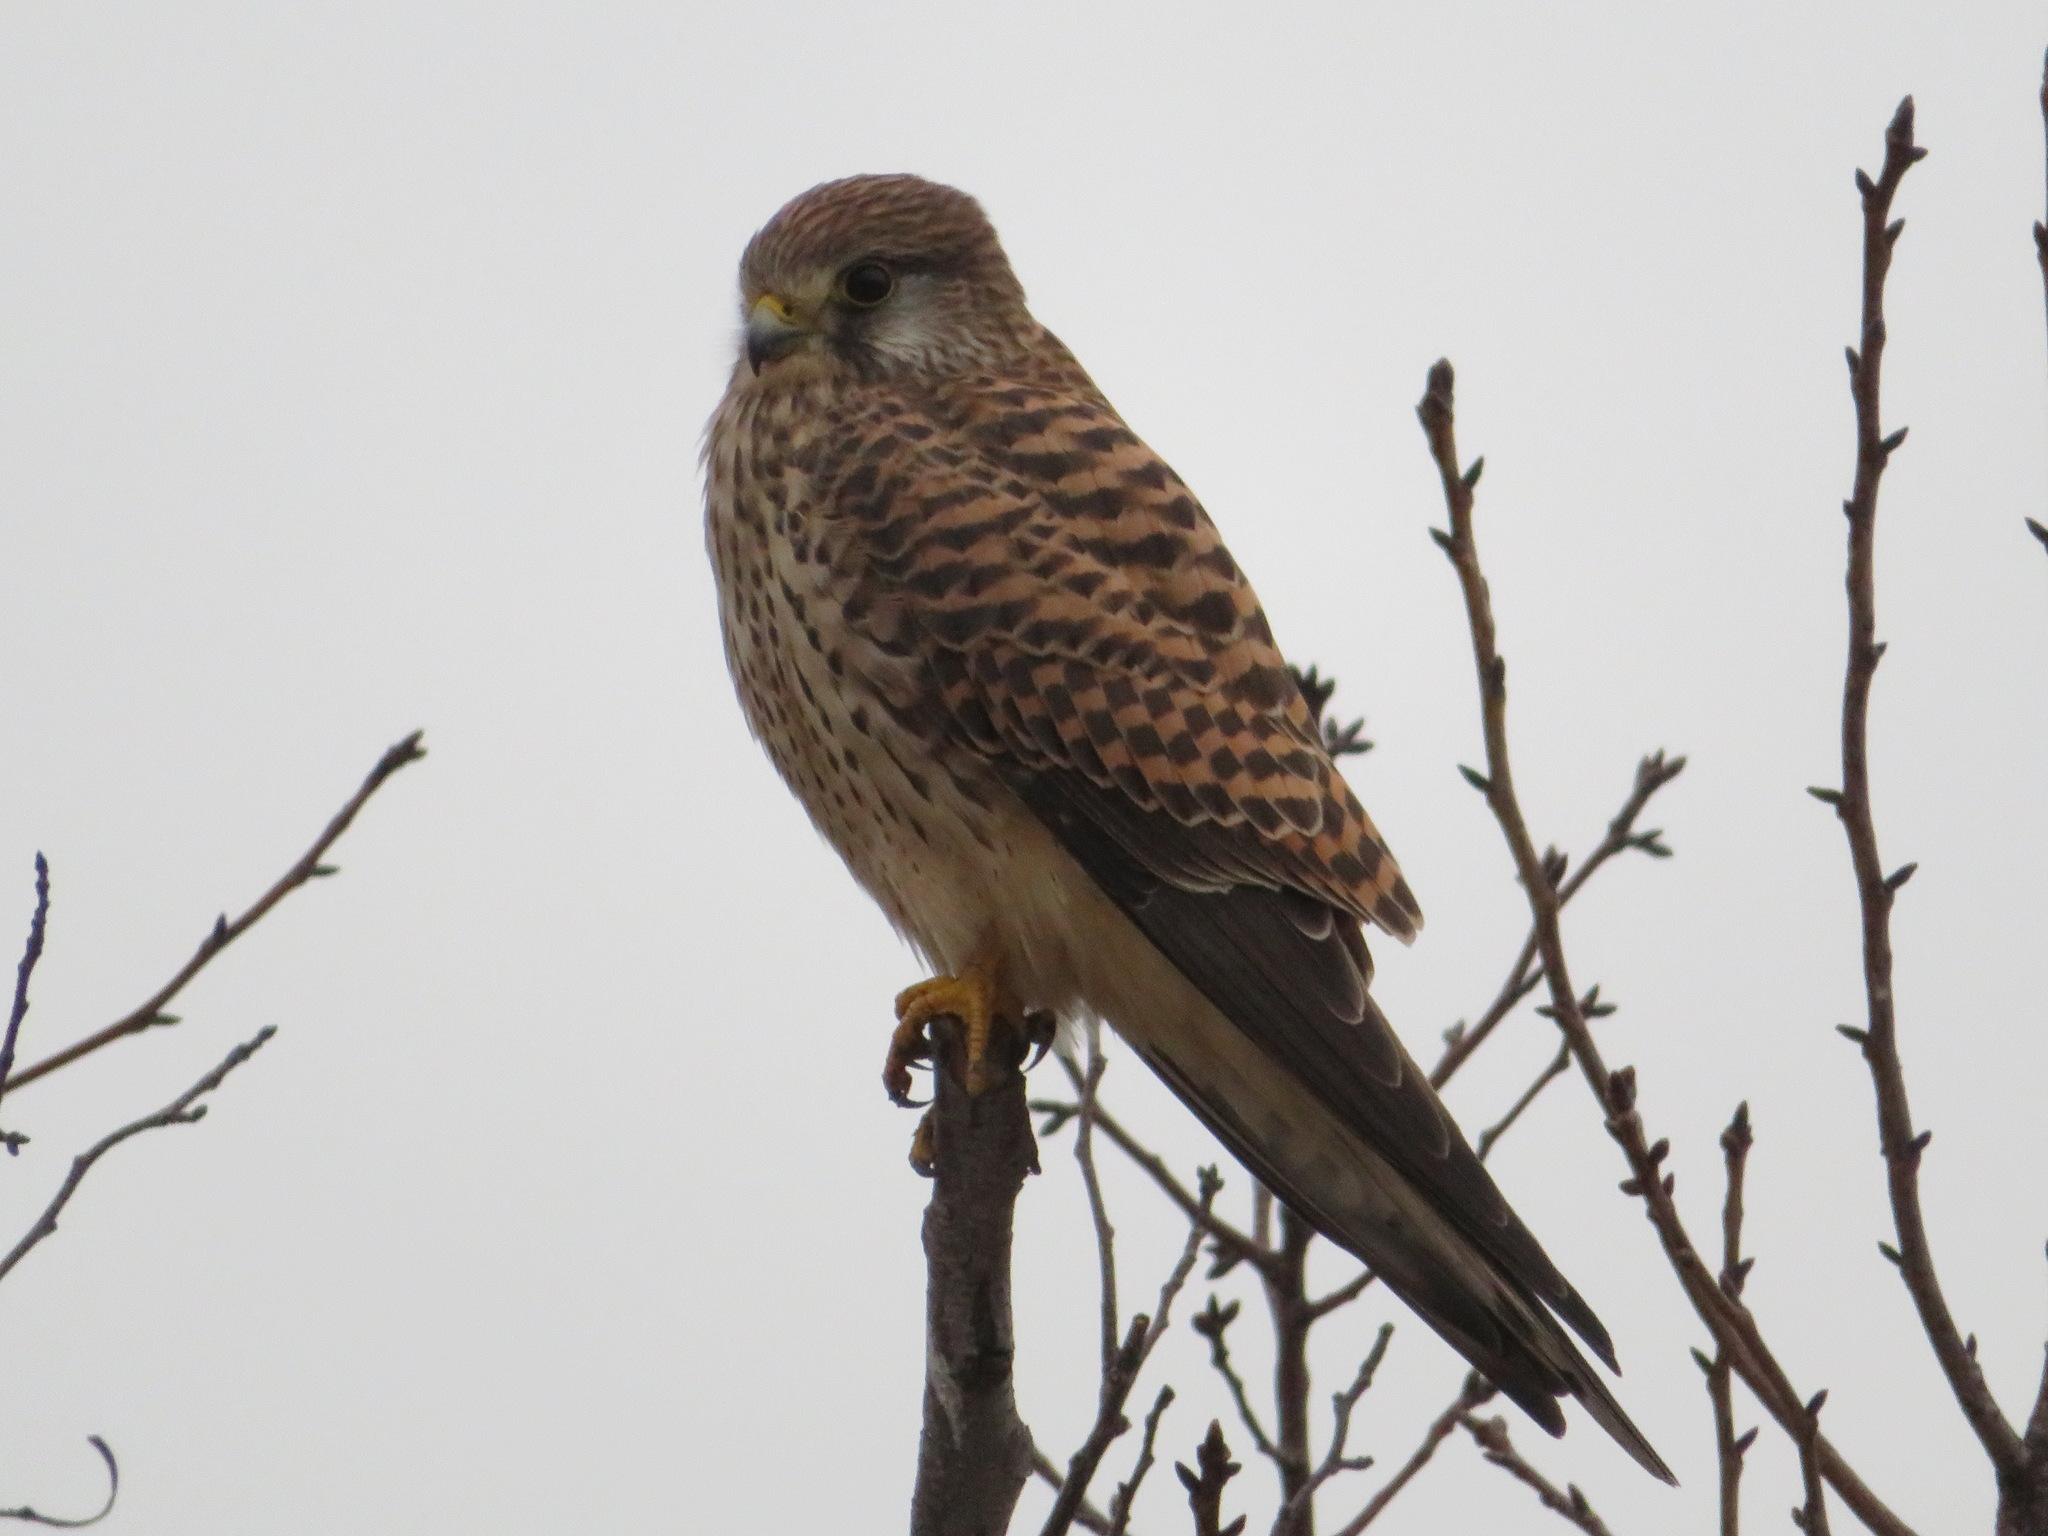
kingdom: Animalia
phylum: Chordata
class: Aves
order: Falconiformes
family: Falconidae
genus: Falco
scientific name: Falco tinnunculus
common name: Common kestrel
